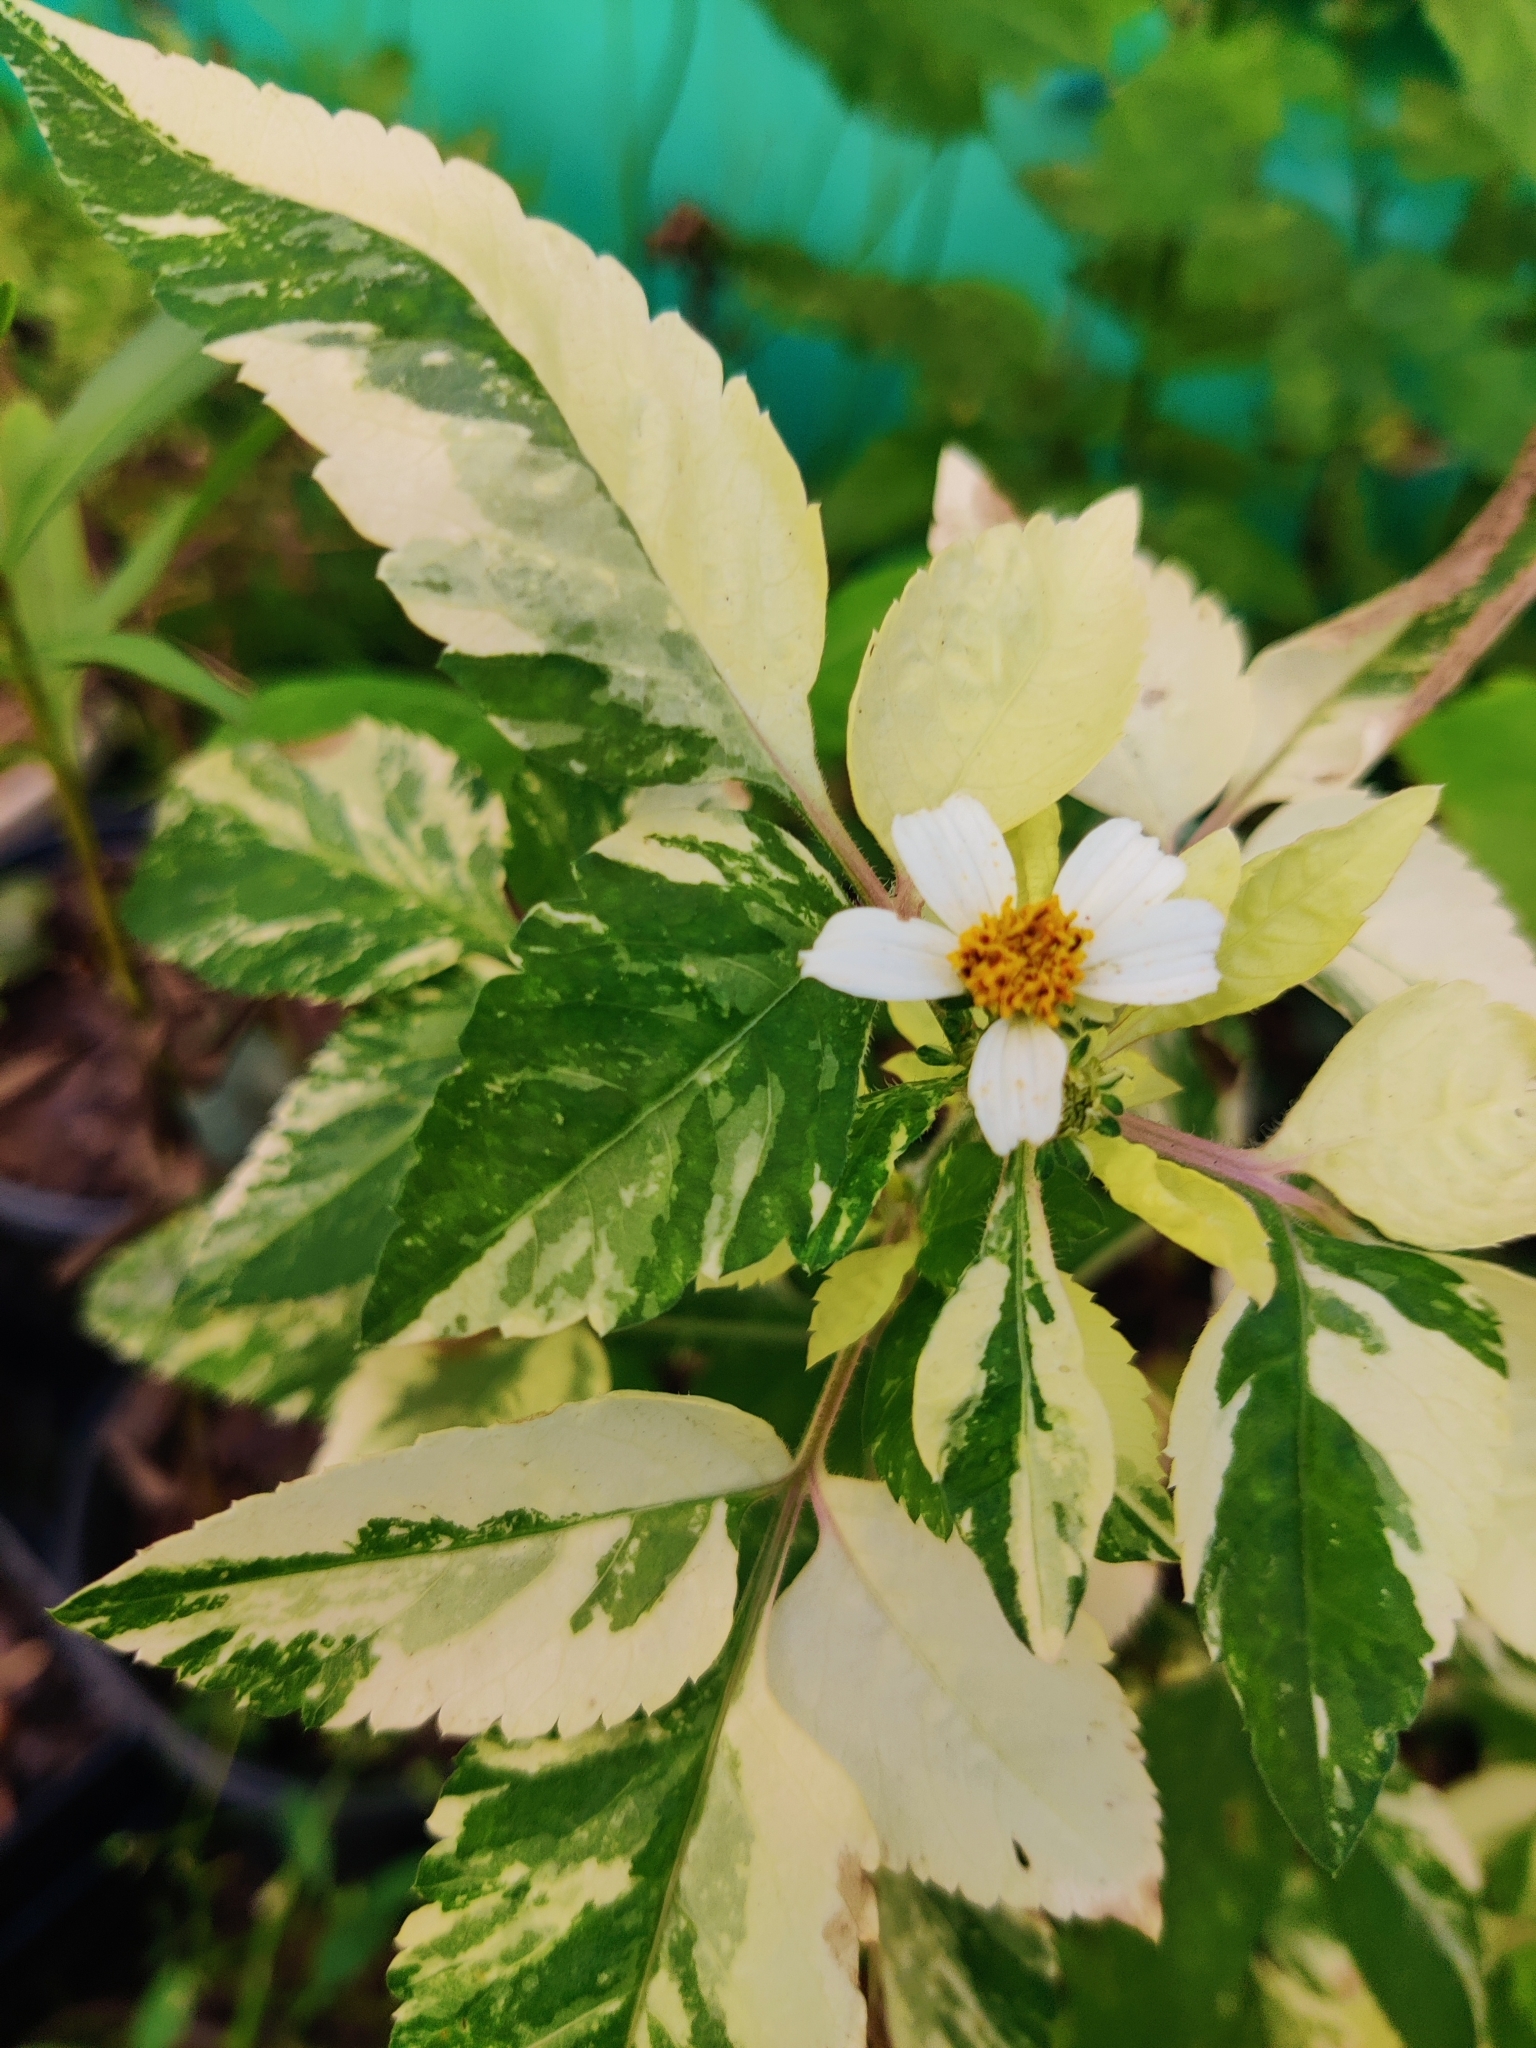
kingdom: Plantae
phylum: Tracheophyta
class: Magnoliopsida
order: Asterales
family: Asteraceae
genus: Bidens
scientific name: Bidens alba
